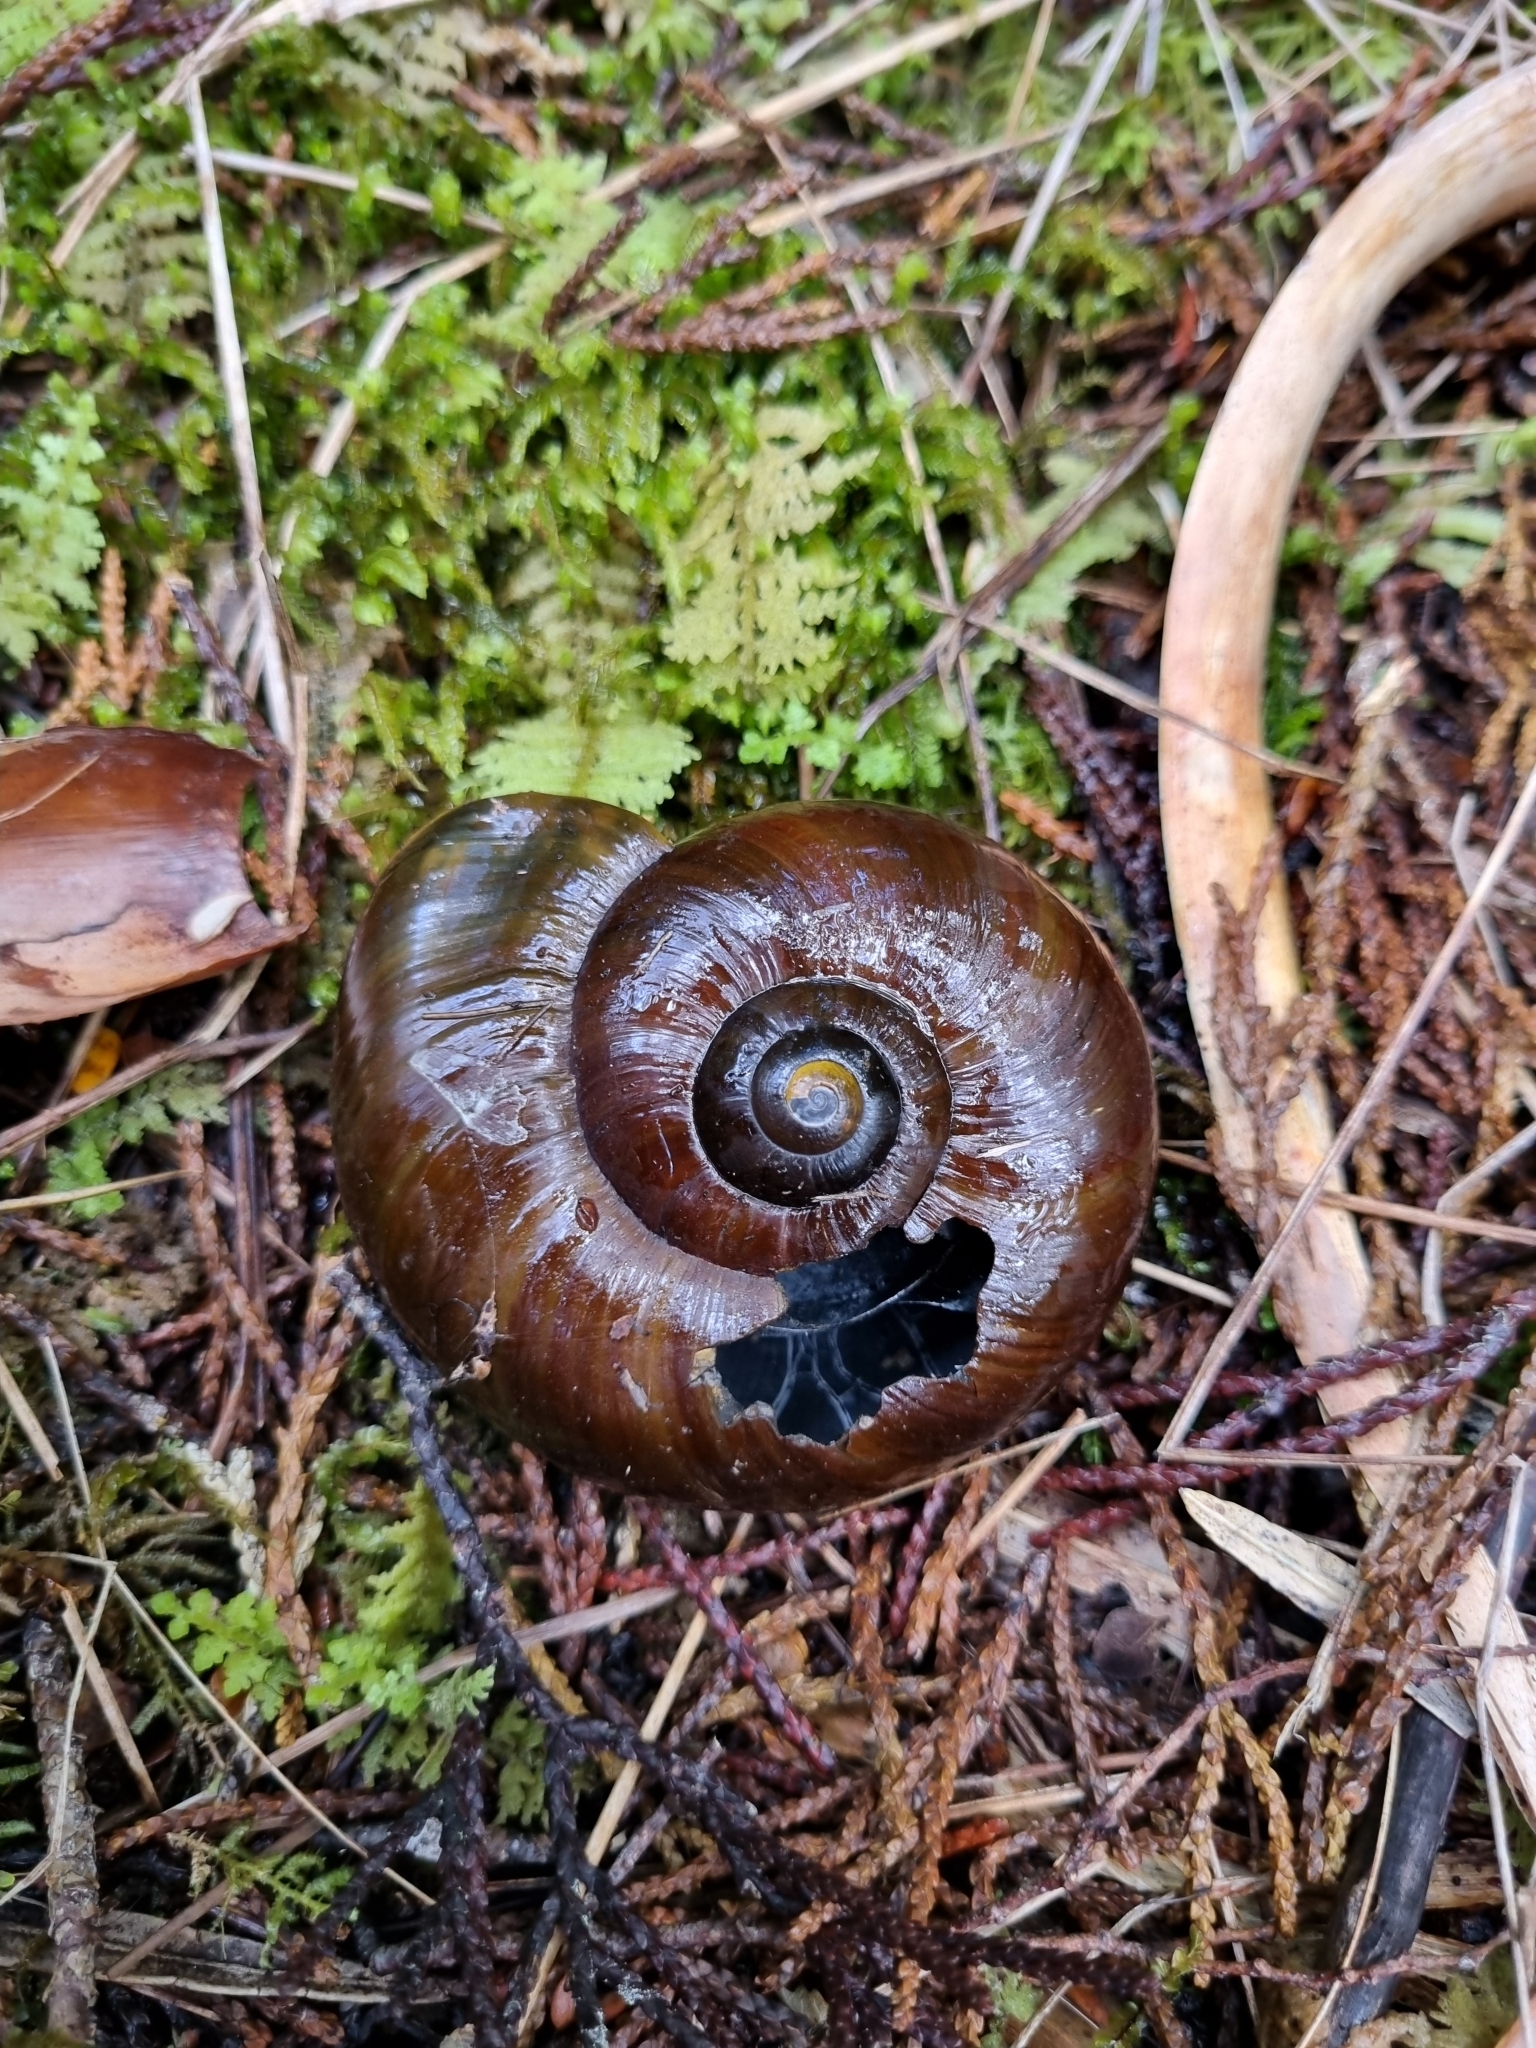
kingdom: Animalia
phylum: Mollusca
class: Gastropoda
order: Stylommatophora
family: Rhytididae
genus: Powelliphanta
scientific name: Powelliphanta superba
